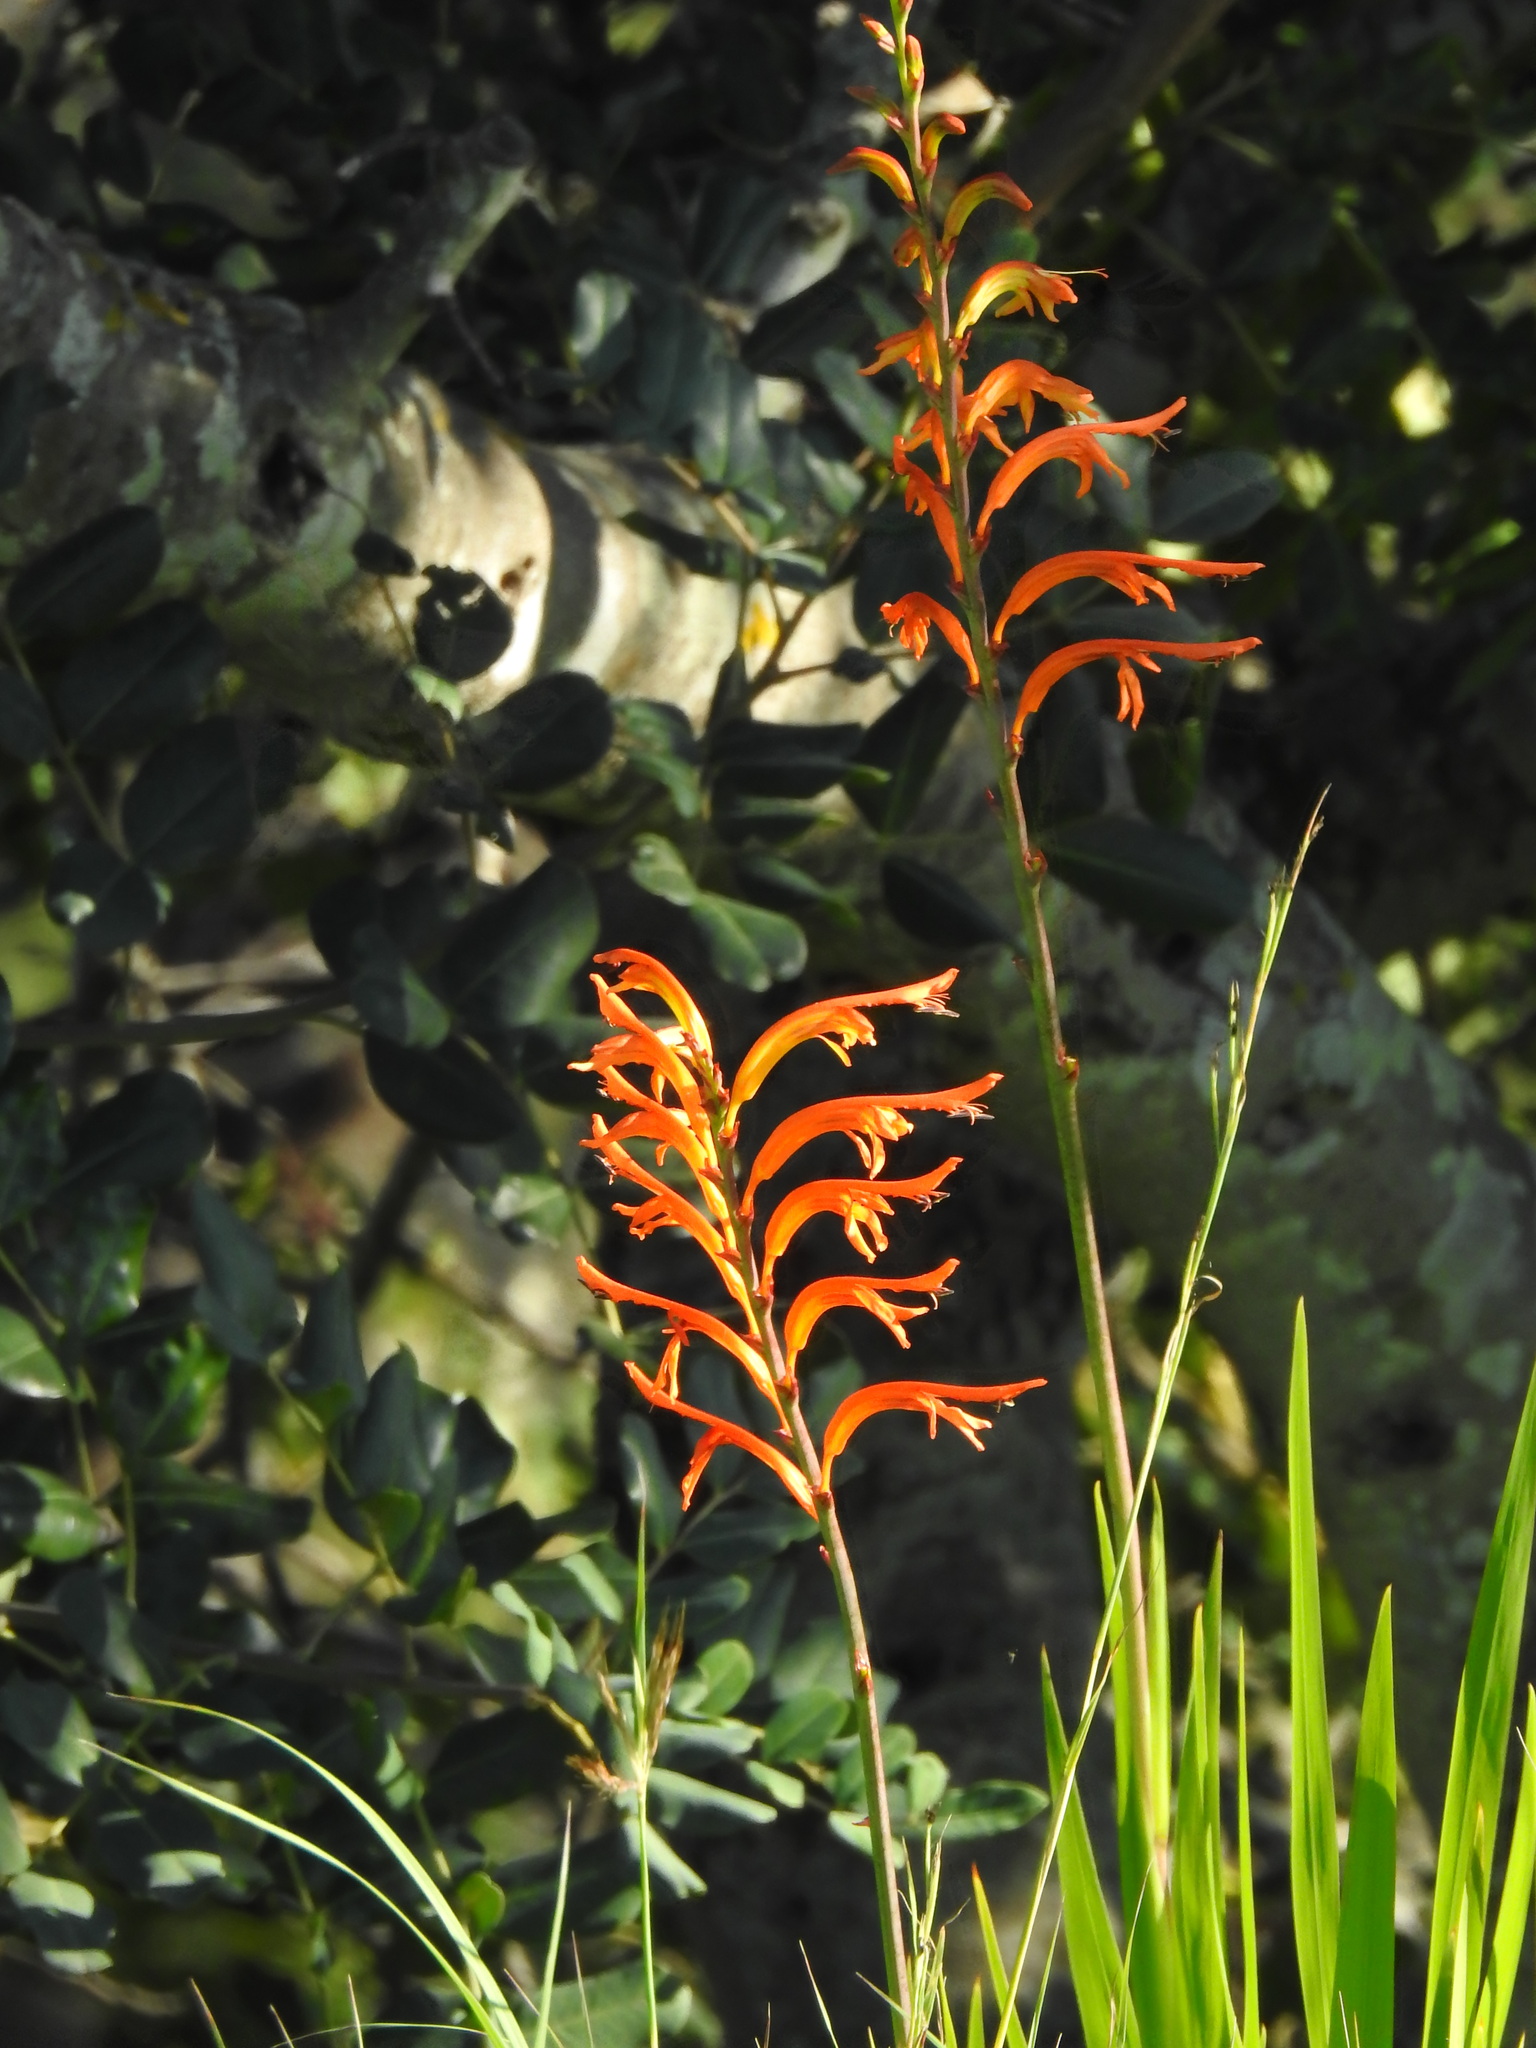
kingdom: Plantae
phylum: Tracheophyta
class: Liliopsida
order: Asparagales
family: Iridaceae
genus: Chasmanthe
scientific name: Chasmanthe floribunda
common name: African cornflag
